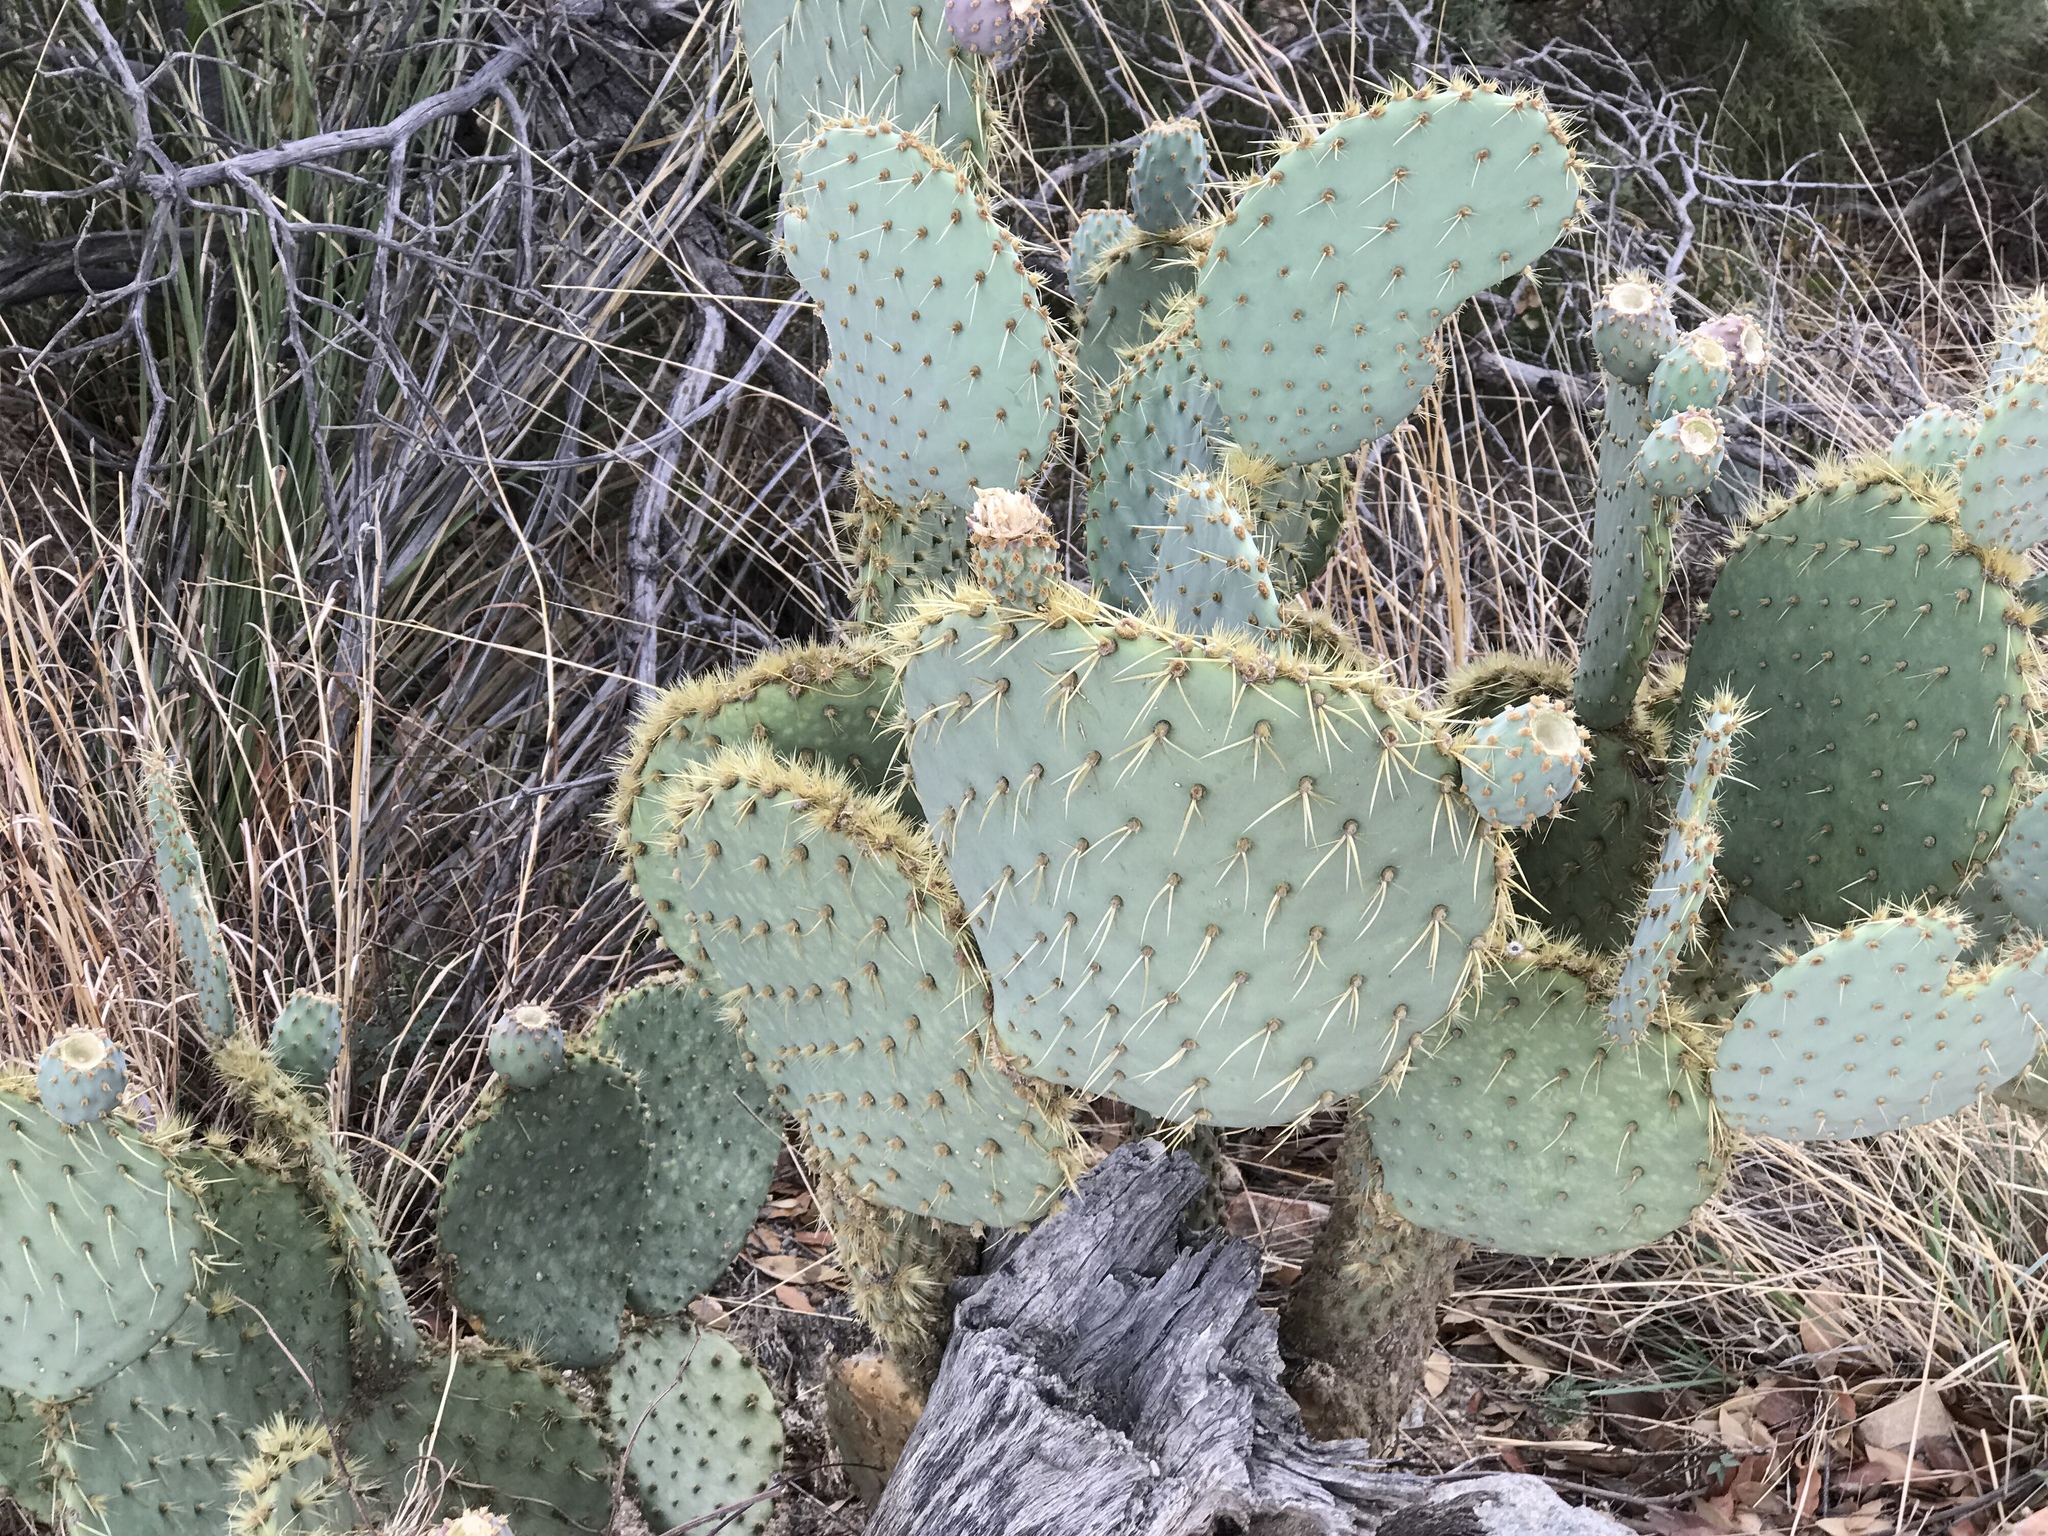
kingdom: Plantae
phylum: Tracheophyta
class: Magnoliopsida
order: Caryophyllales
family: Cactaceae
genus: Opuntia
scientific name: Opuntia chlorotica
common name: Dollar-joint prickly-pear
